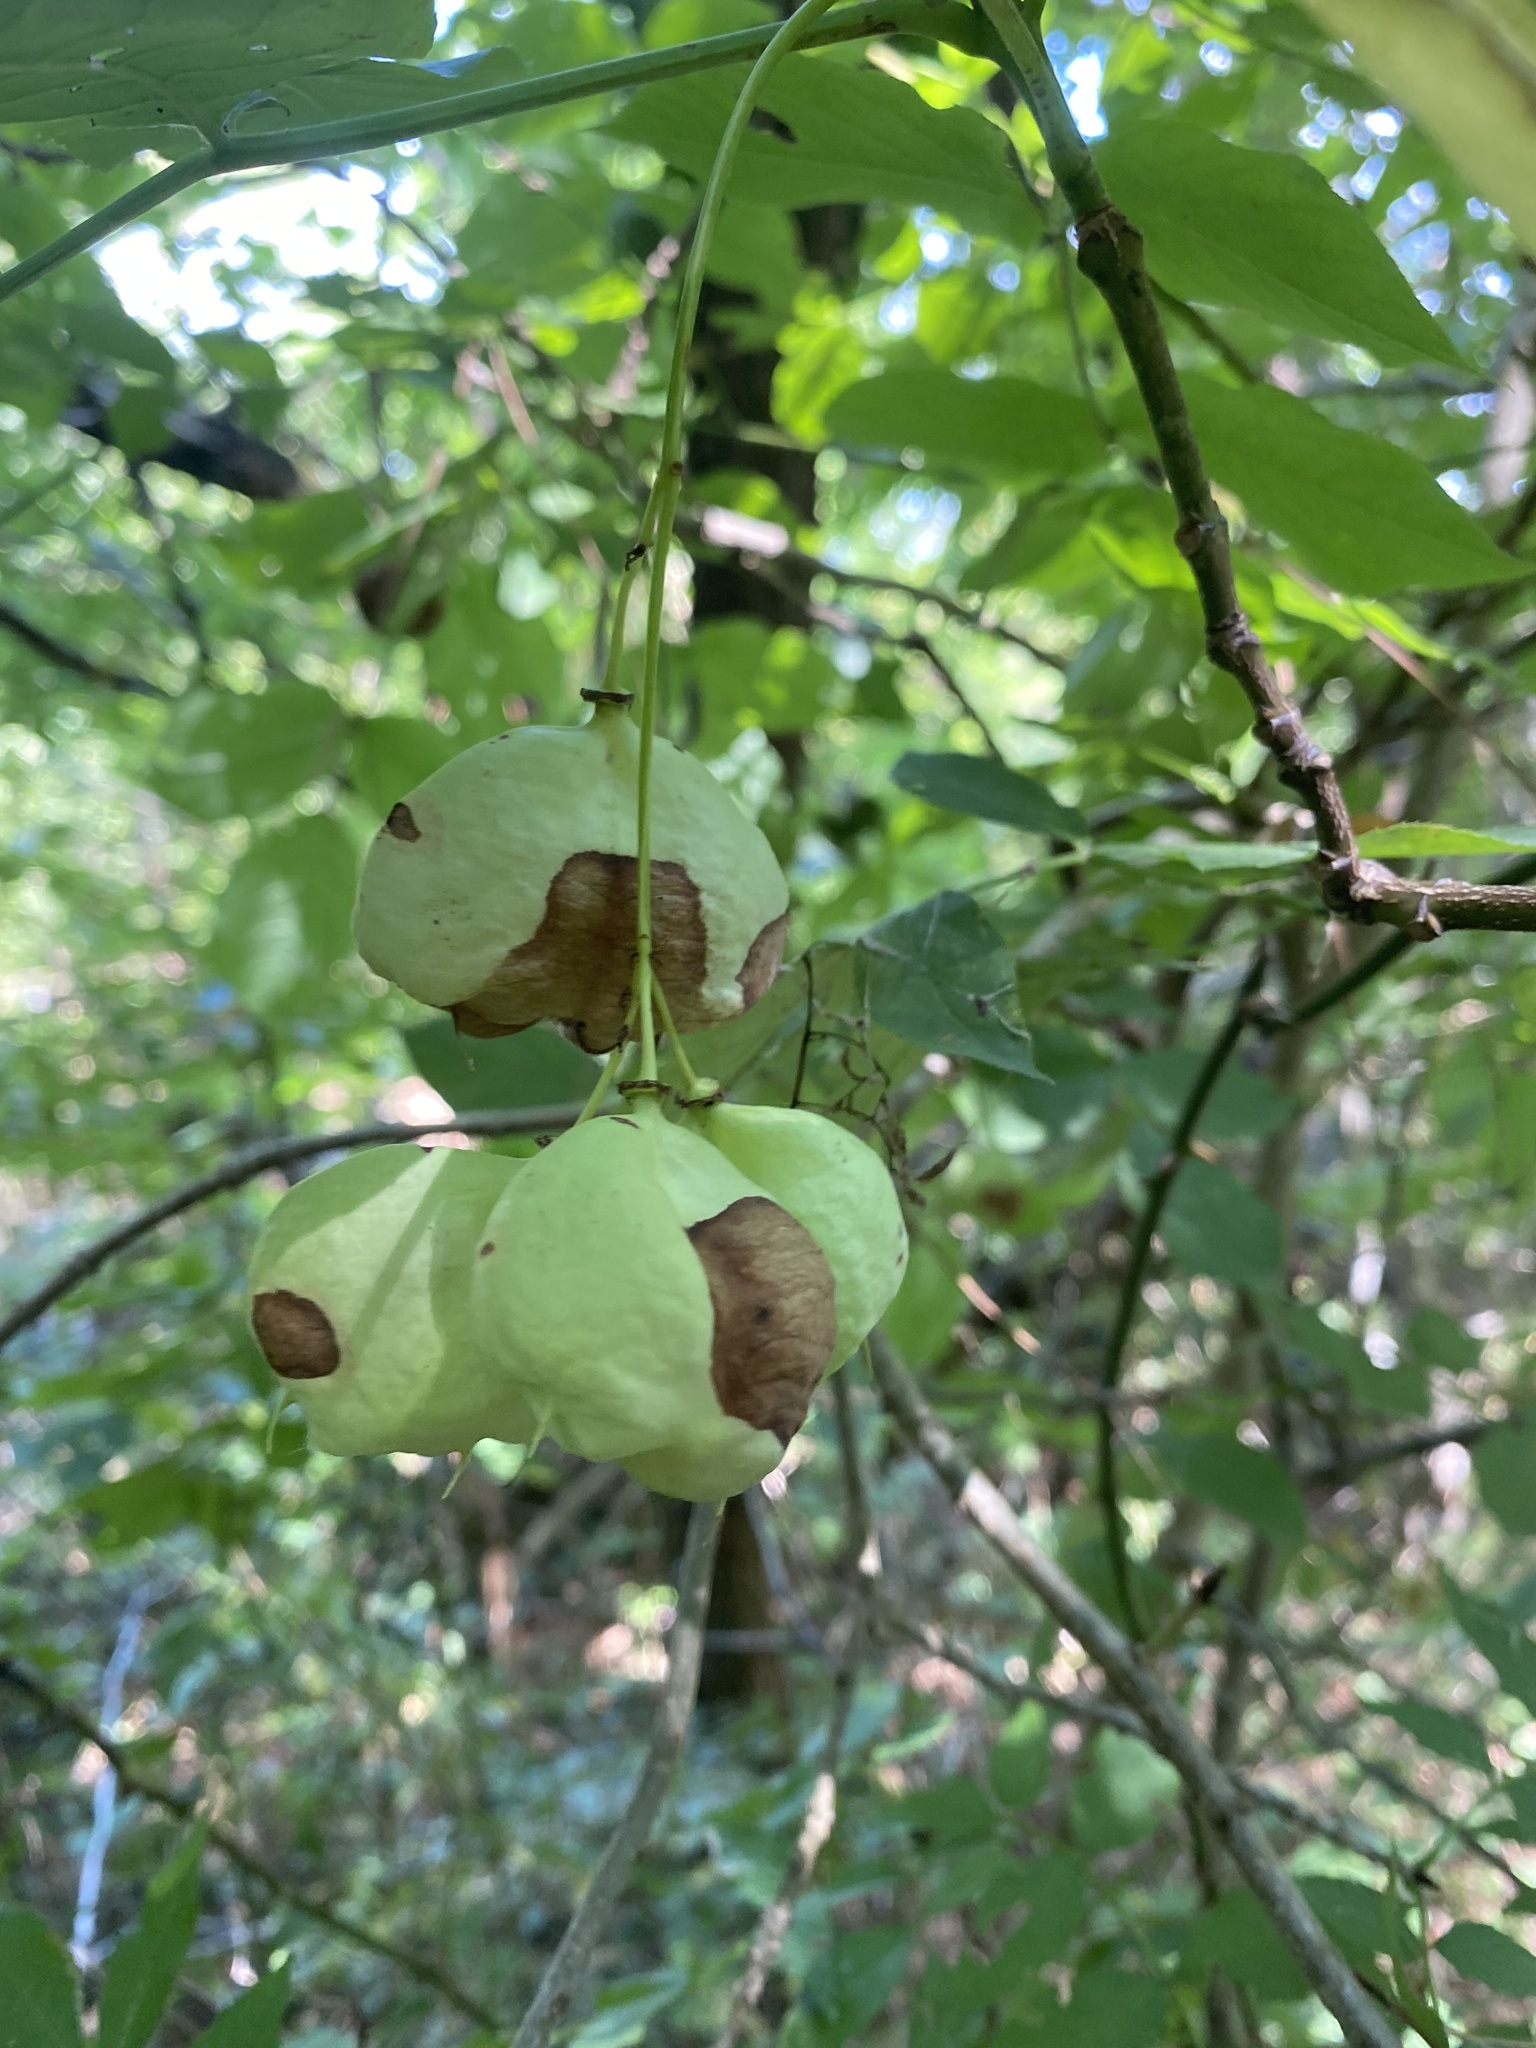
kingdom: Plantae
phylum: Tracheophyta
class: Magnoliopsida
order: Crossosomatales
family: Staphyleaceae
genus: Staphylea
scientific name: Staphylea pinnata
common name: Bladdernut
